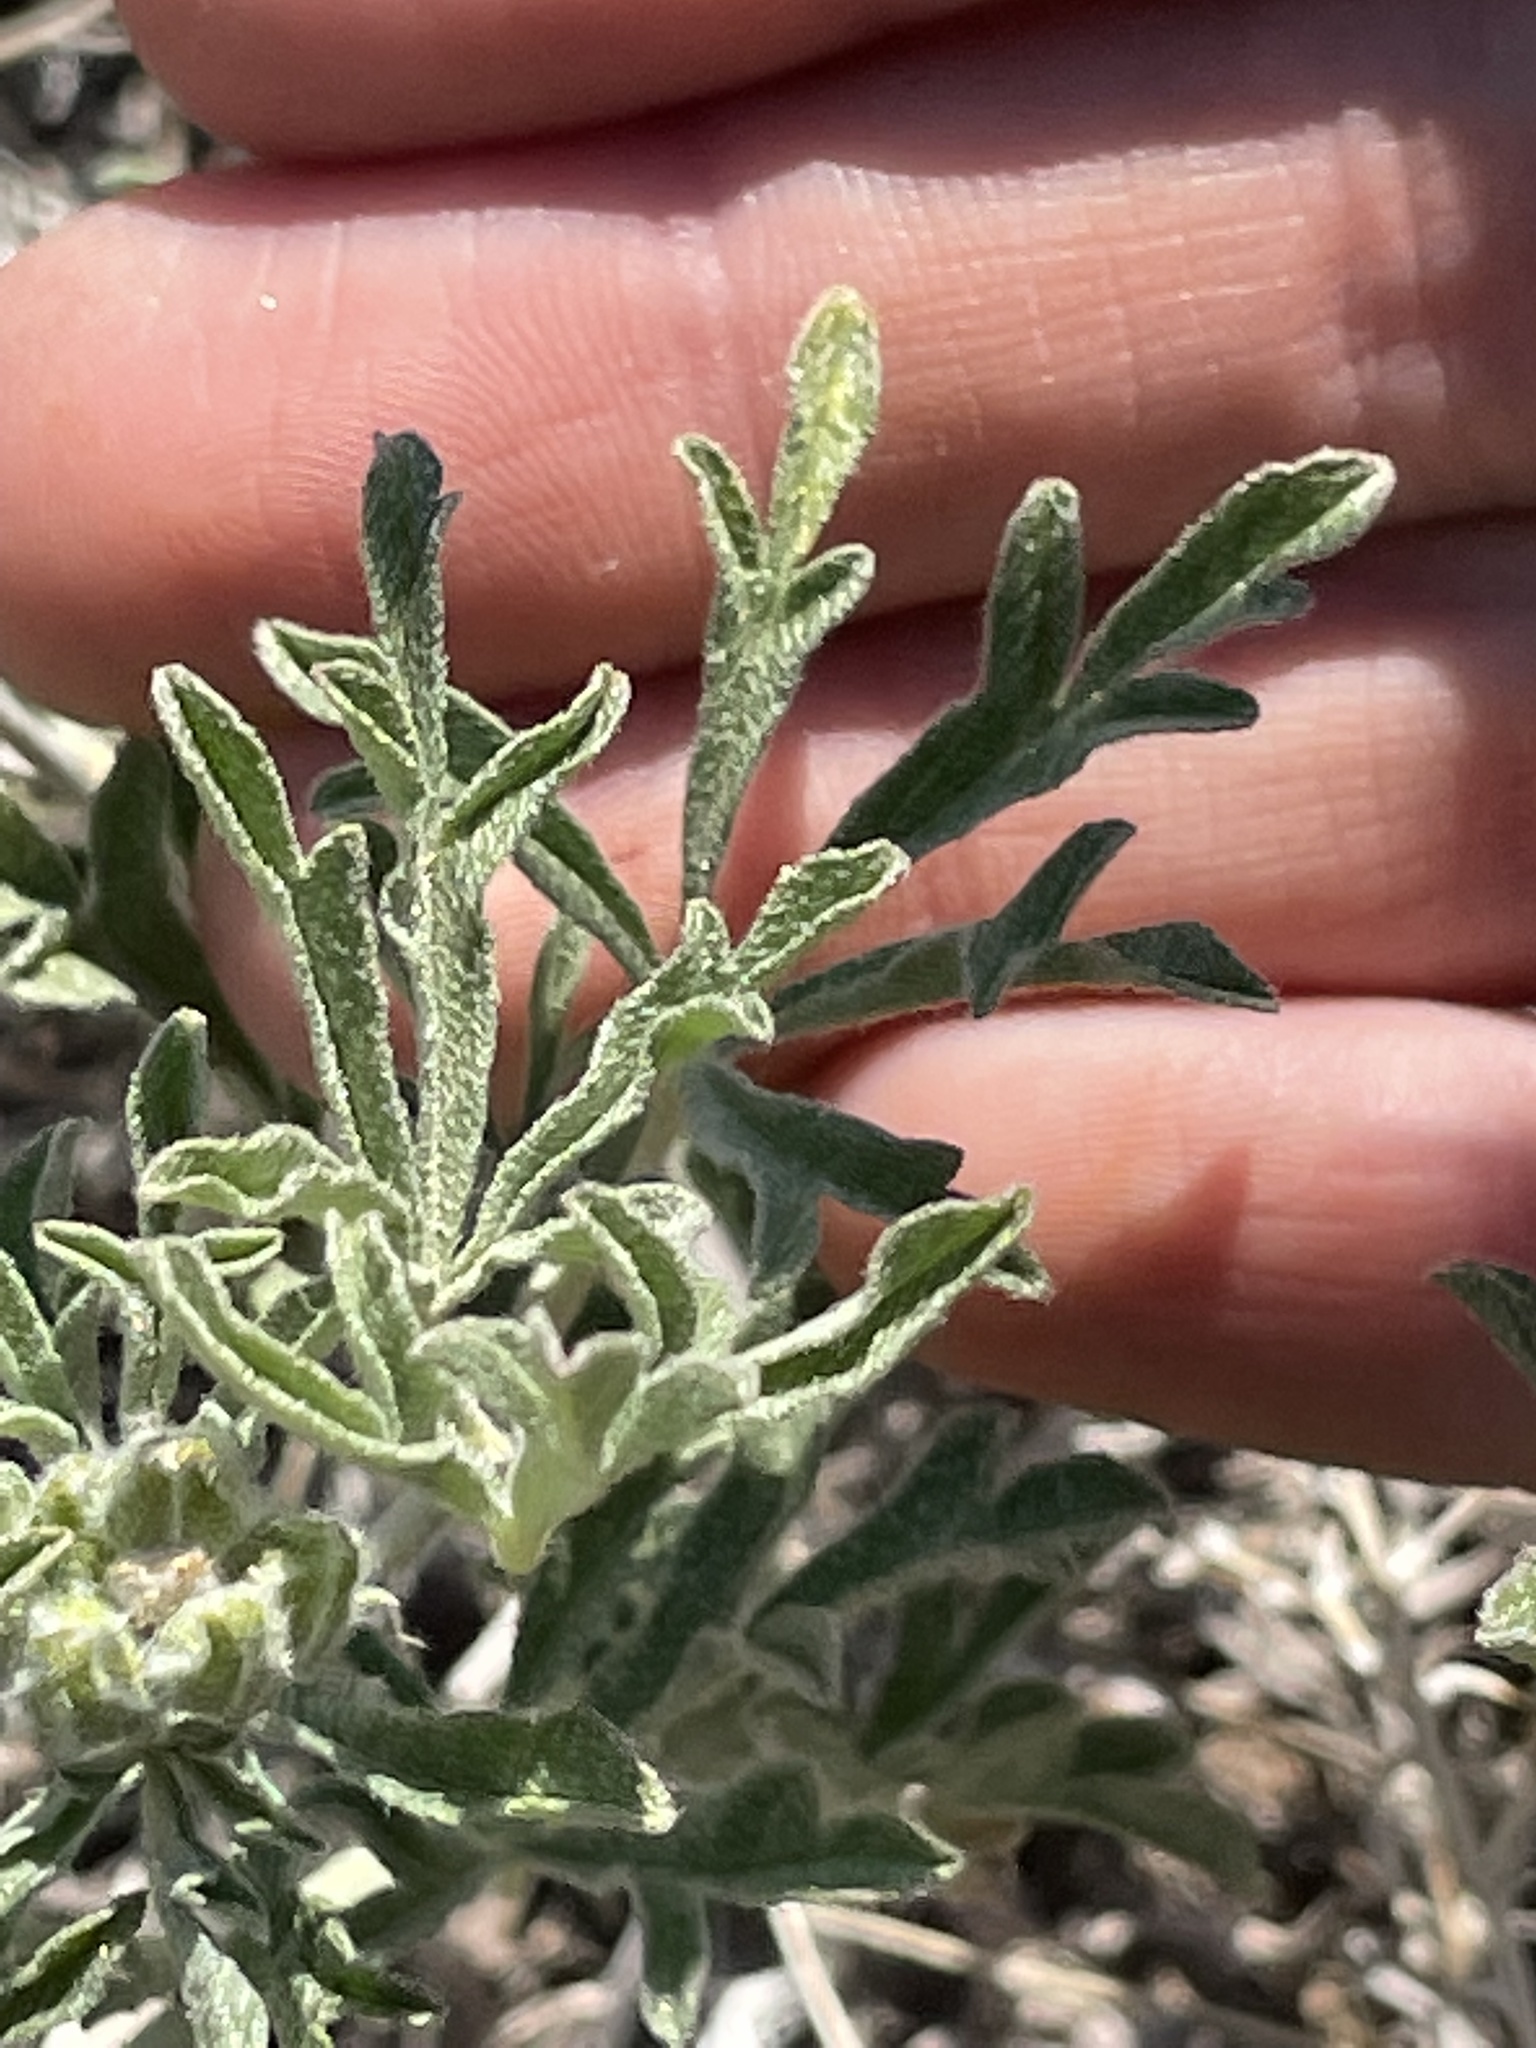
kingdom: Plantae
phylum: Tracheophyta
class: Magnoliopsida
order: Malvales
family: Malvaceae
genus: Sphaeralcea
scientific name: Sphaeralcea coccinea
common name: Moss-rose
